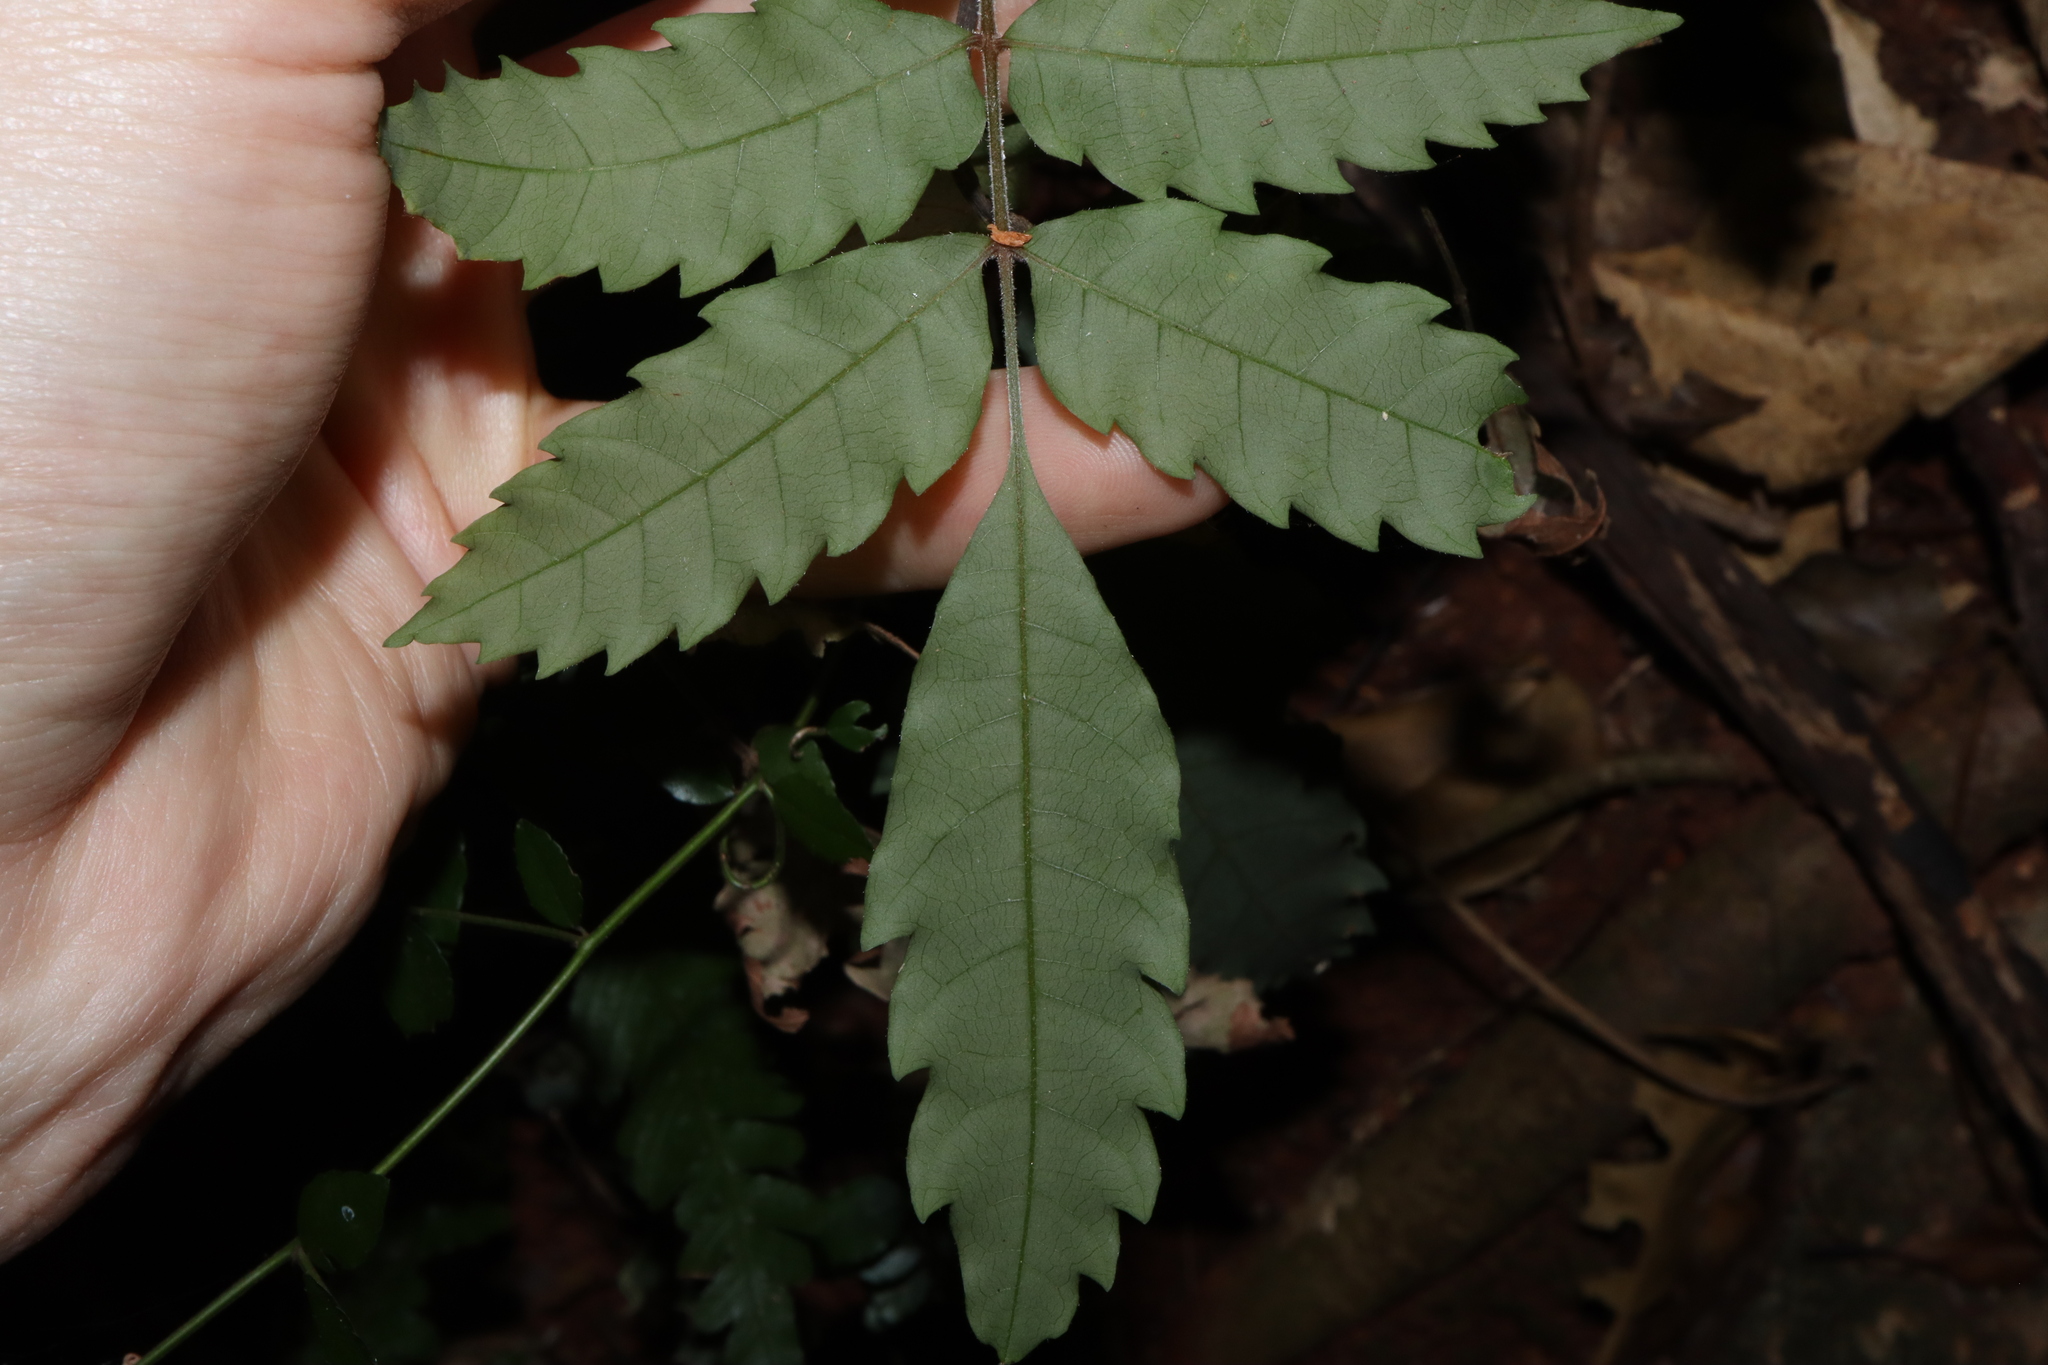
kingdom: Plantae
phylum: Tracheophyta
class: Magnoliopsida
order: Sapindales
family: Sapindaceae
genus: Cupaniopsis
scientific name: Cupaniopsis flagelliformis
